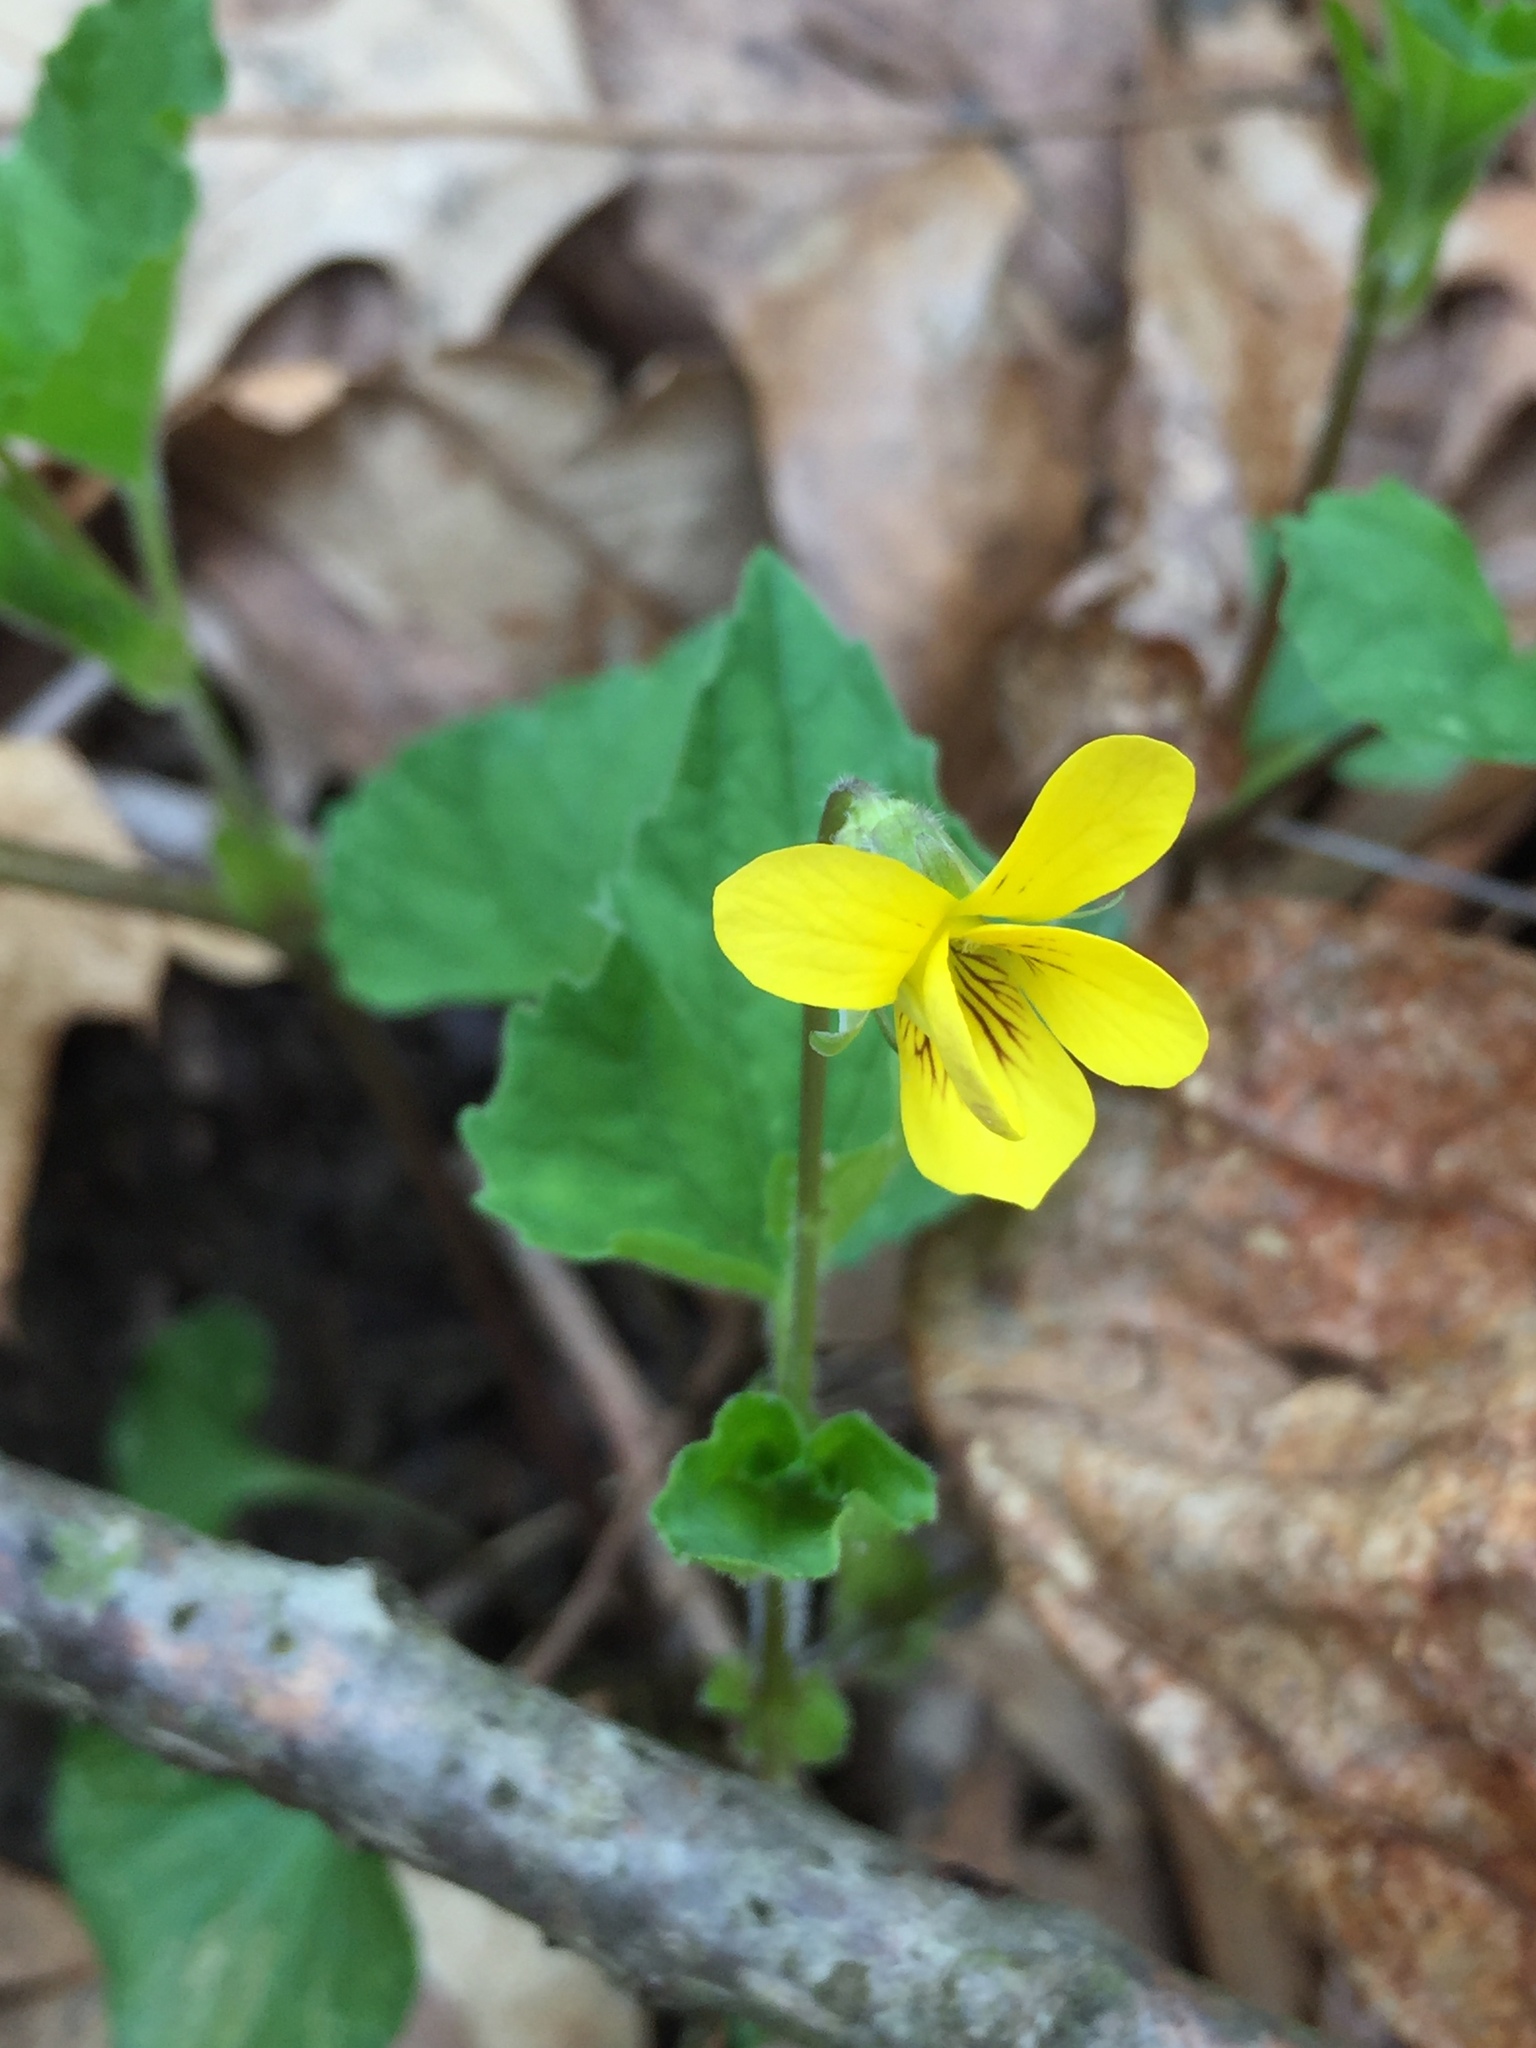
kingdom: Plantae
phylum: Tracheophyta
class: Magnoliopsida
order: Malpighiales
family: Violaceae
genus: Viola
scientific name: Viola eriocarpa
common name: Smooth yellow violet
